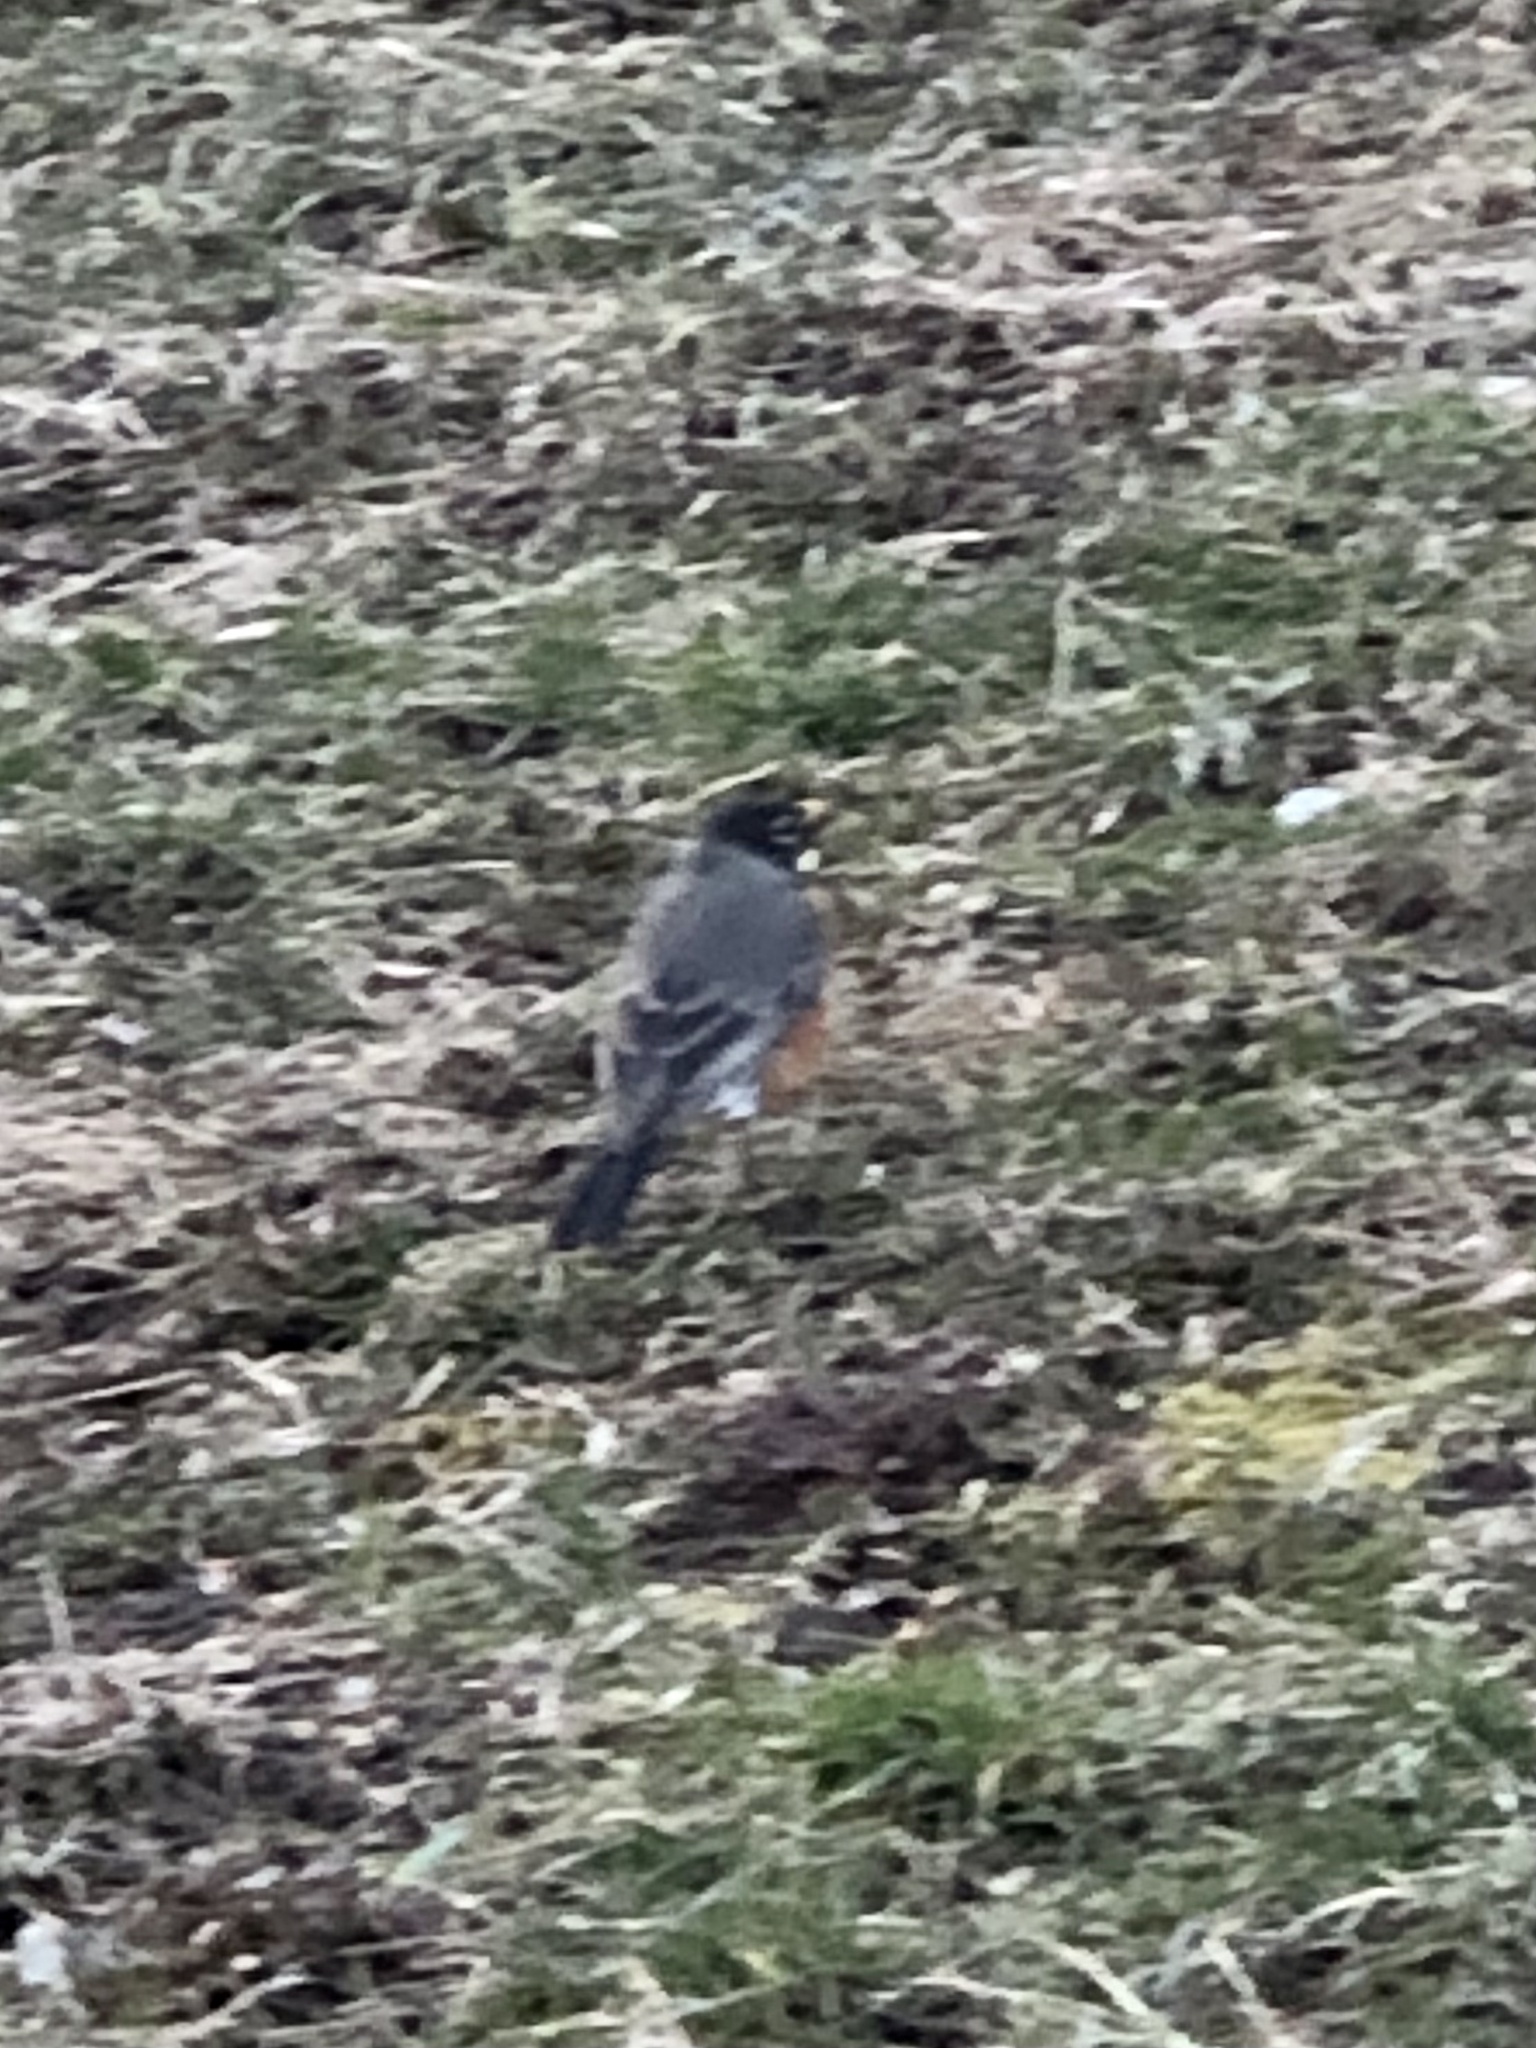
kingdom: Animalia
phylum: Chordata
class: Aves
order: Passeriformes
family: Turdidae
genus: Turdus
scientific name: Turdus migratorius
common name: American robin
